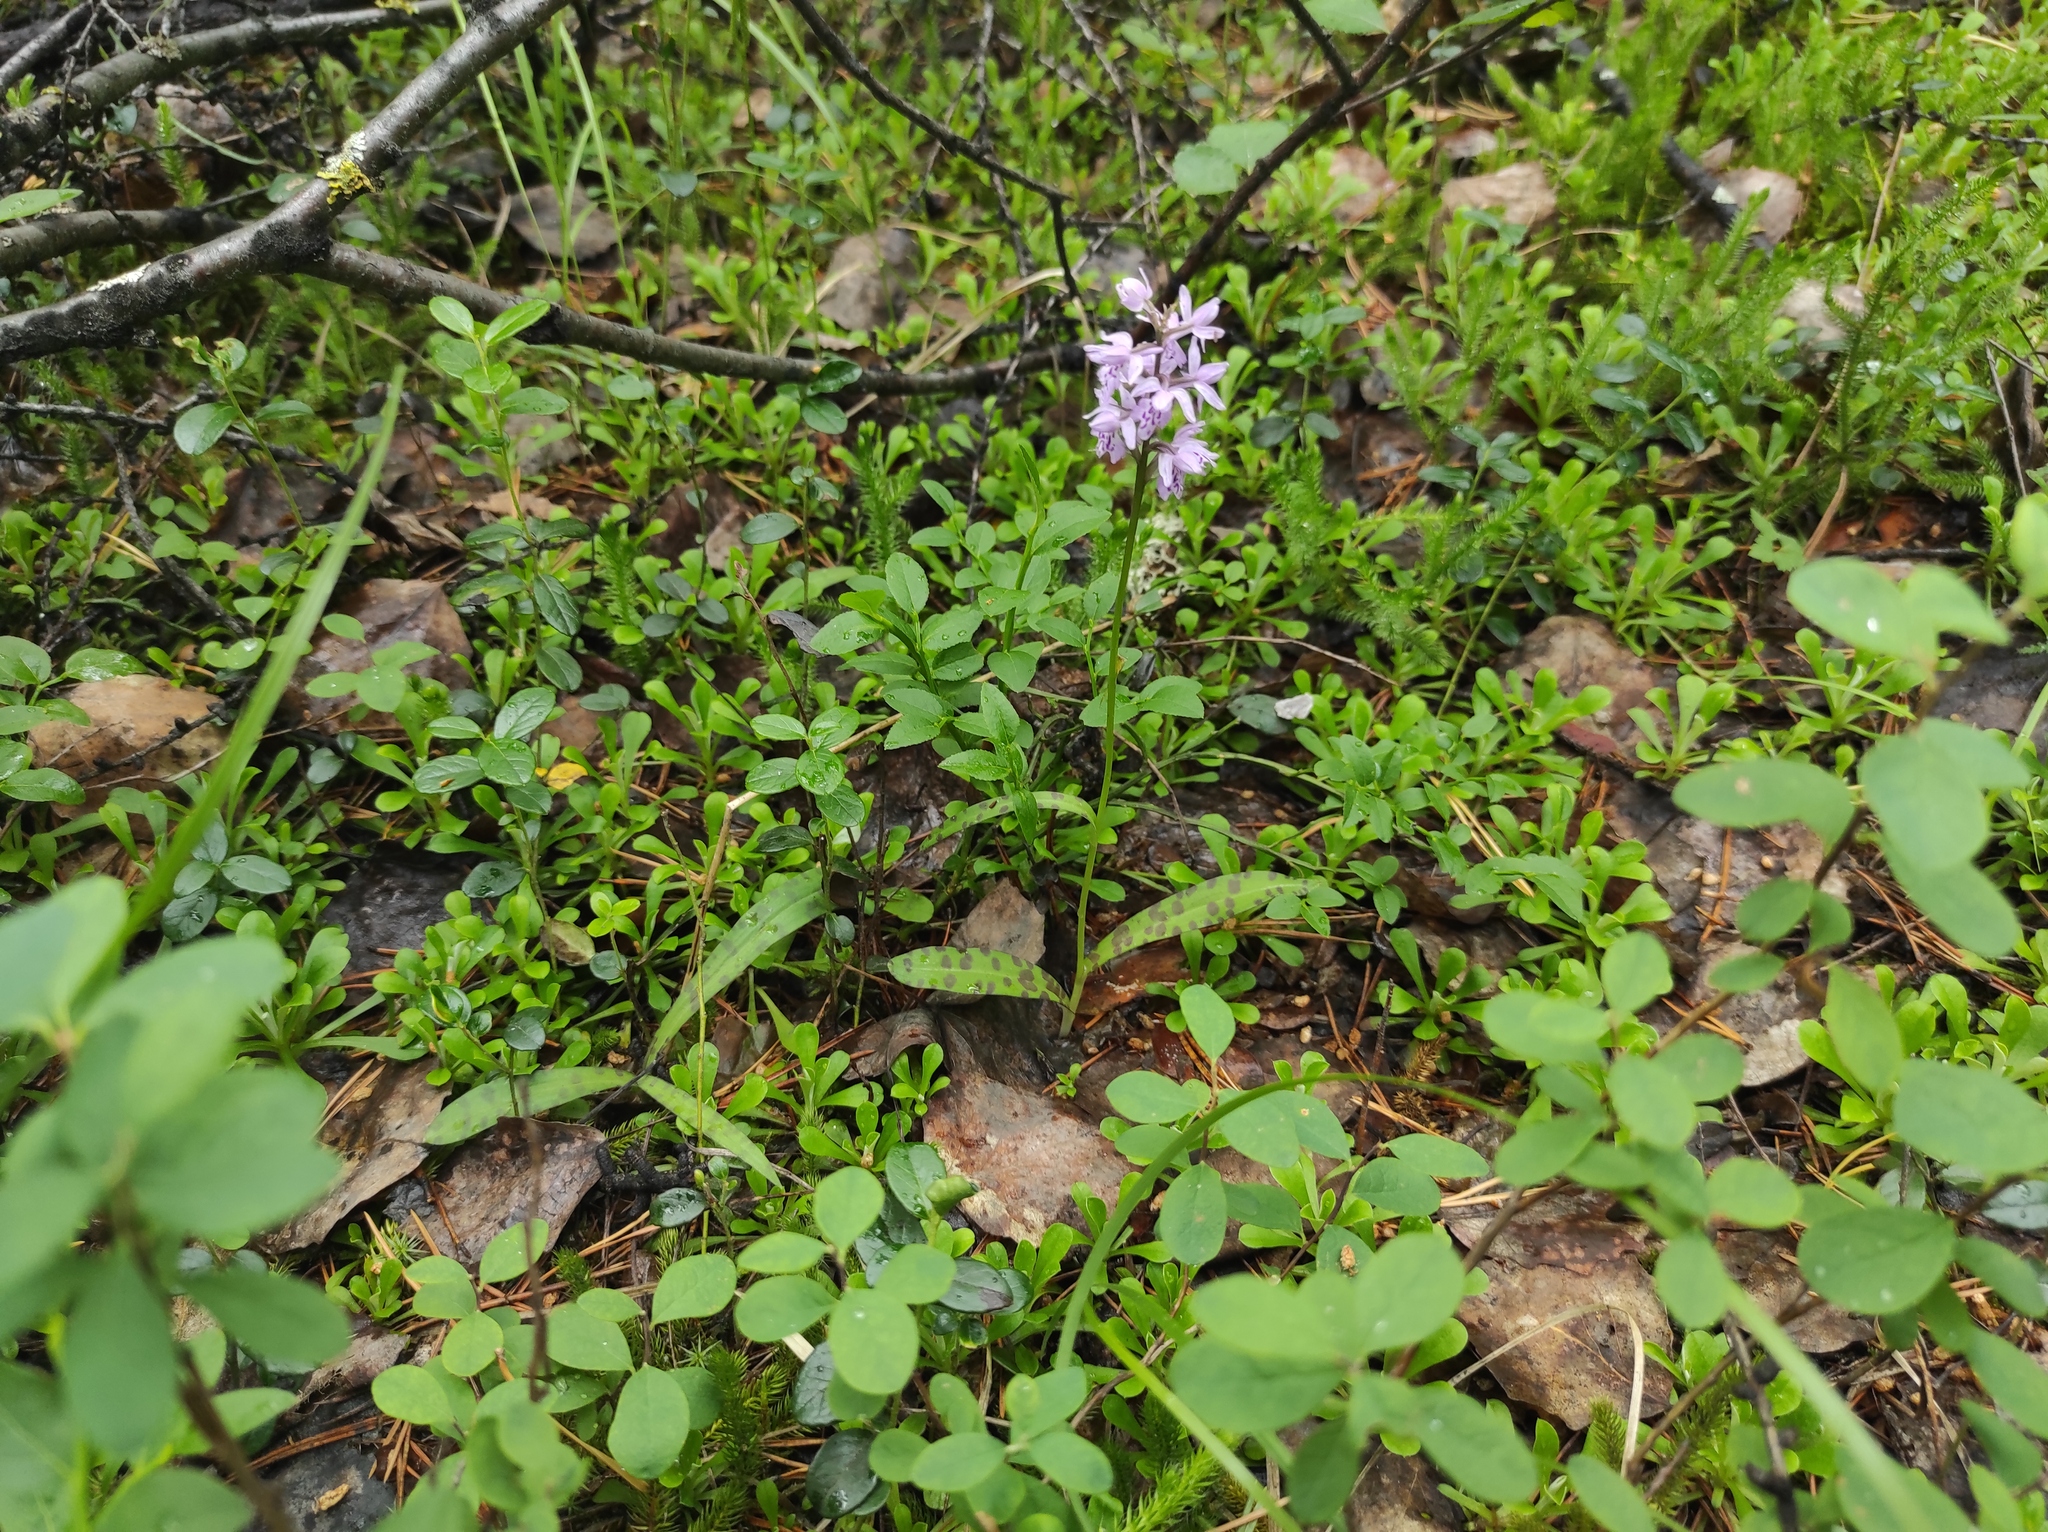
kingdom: Plantae
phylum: Tracheophyta
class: Liliopsida
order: Asparagales
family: Orchidaceae
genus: Dactylorhiza
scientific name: Dactylorhiza maculata
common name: Heath spotted-orchid
